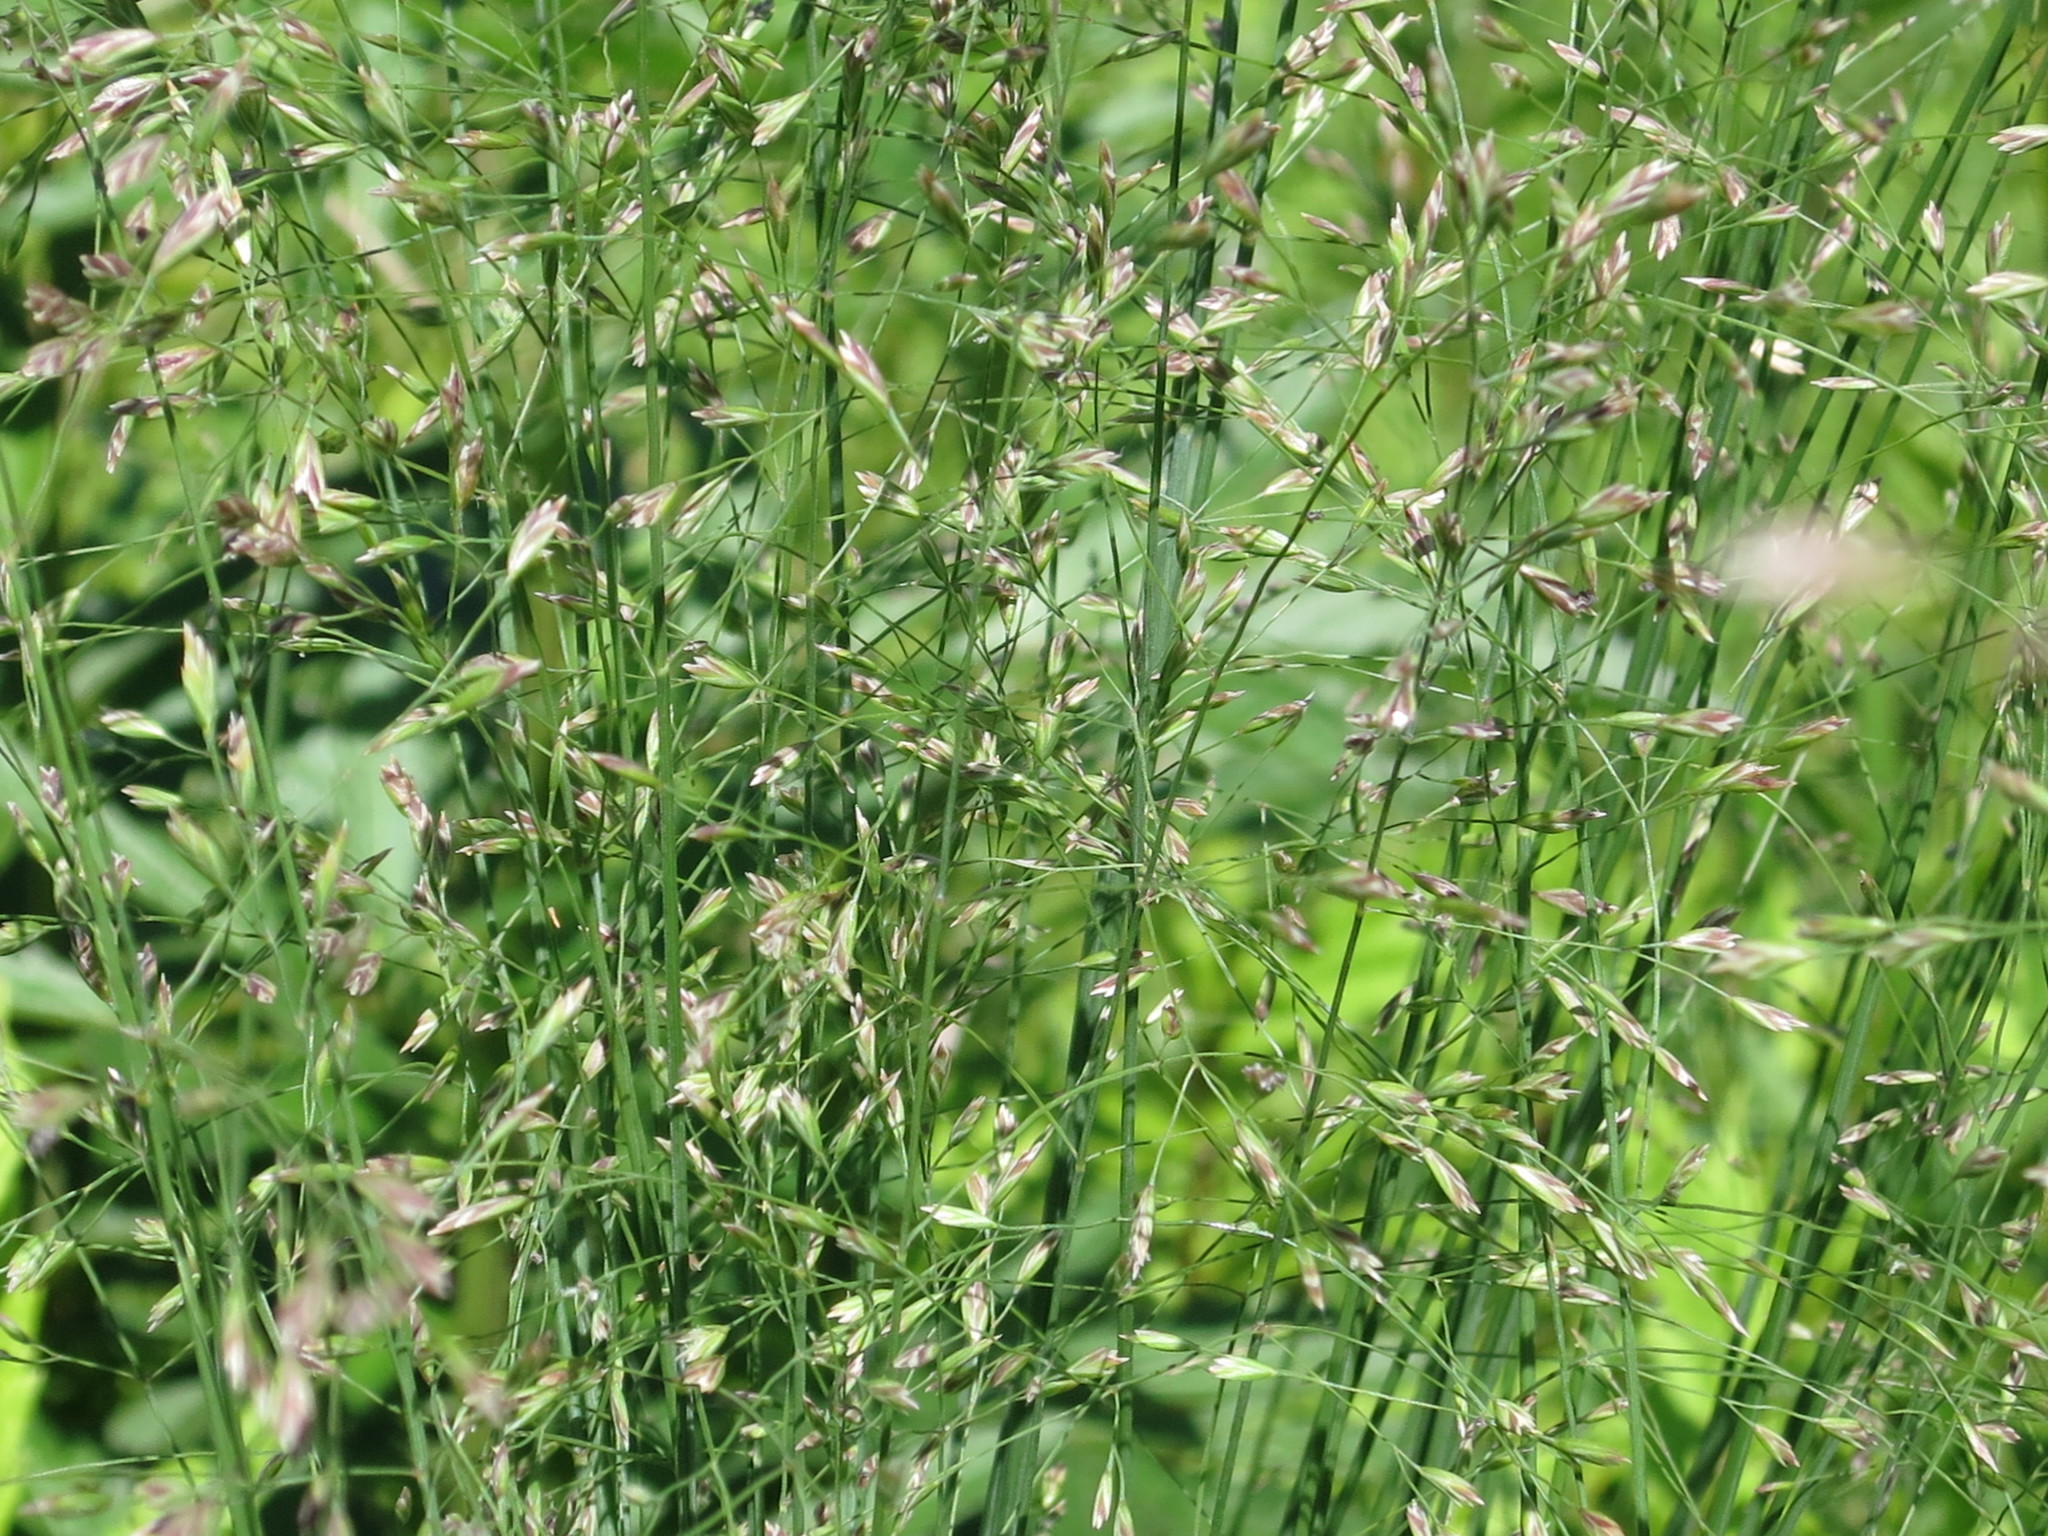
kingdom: Plantae
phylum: Tracheophyta
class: Liliopsida
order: Poales
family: Poaceae
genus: Poa
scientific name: Poa alta
